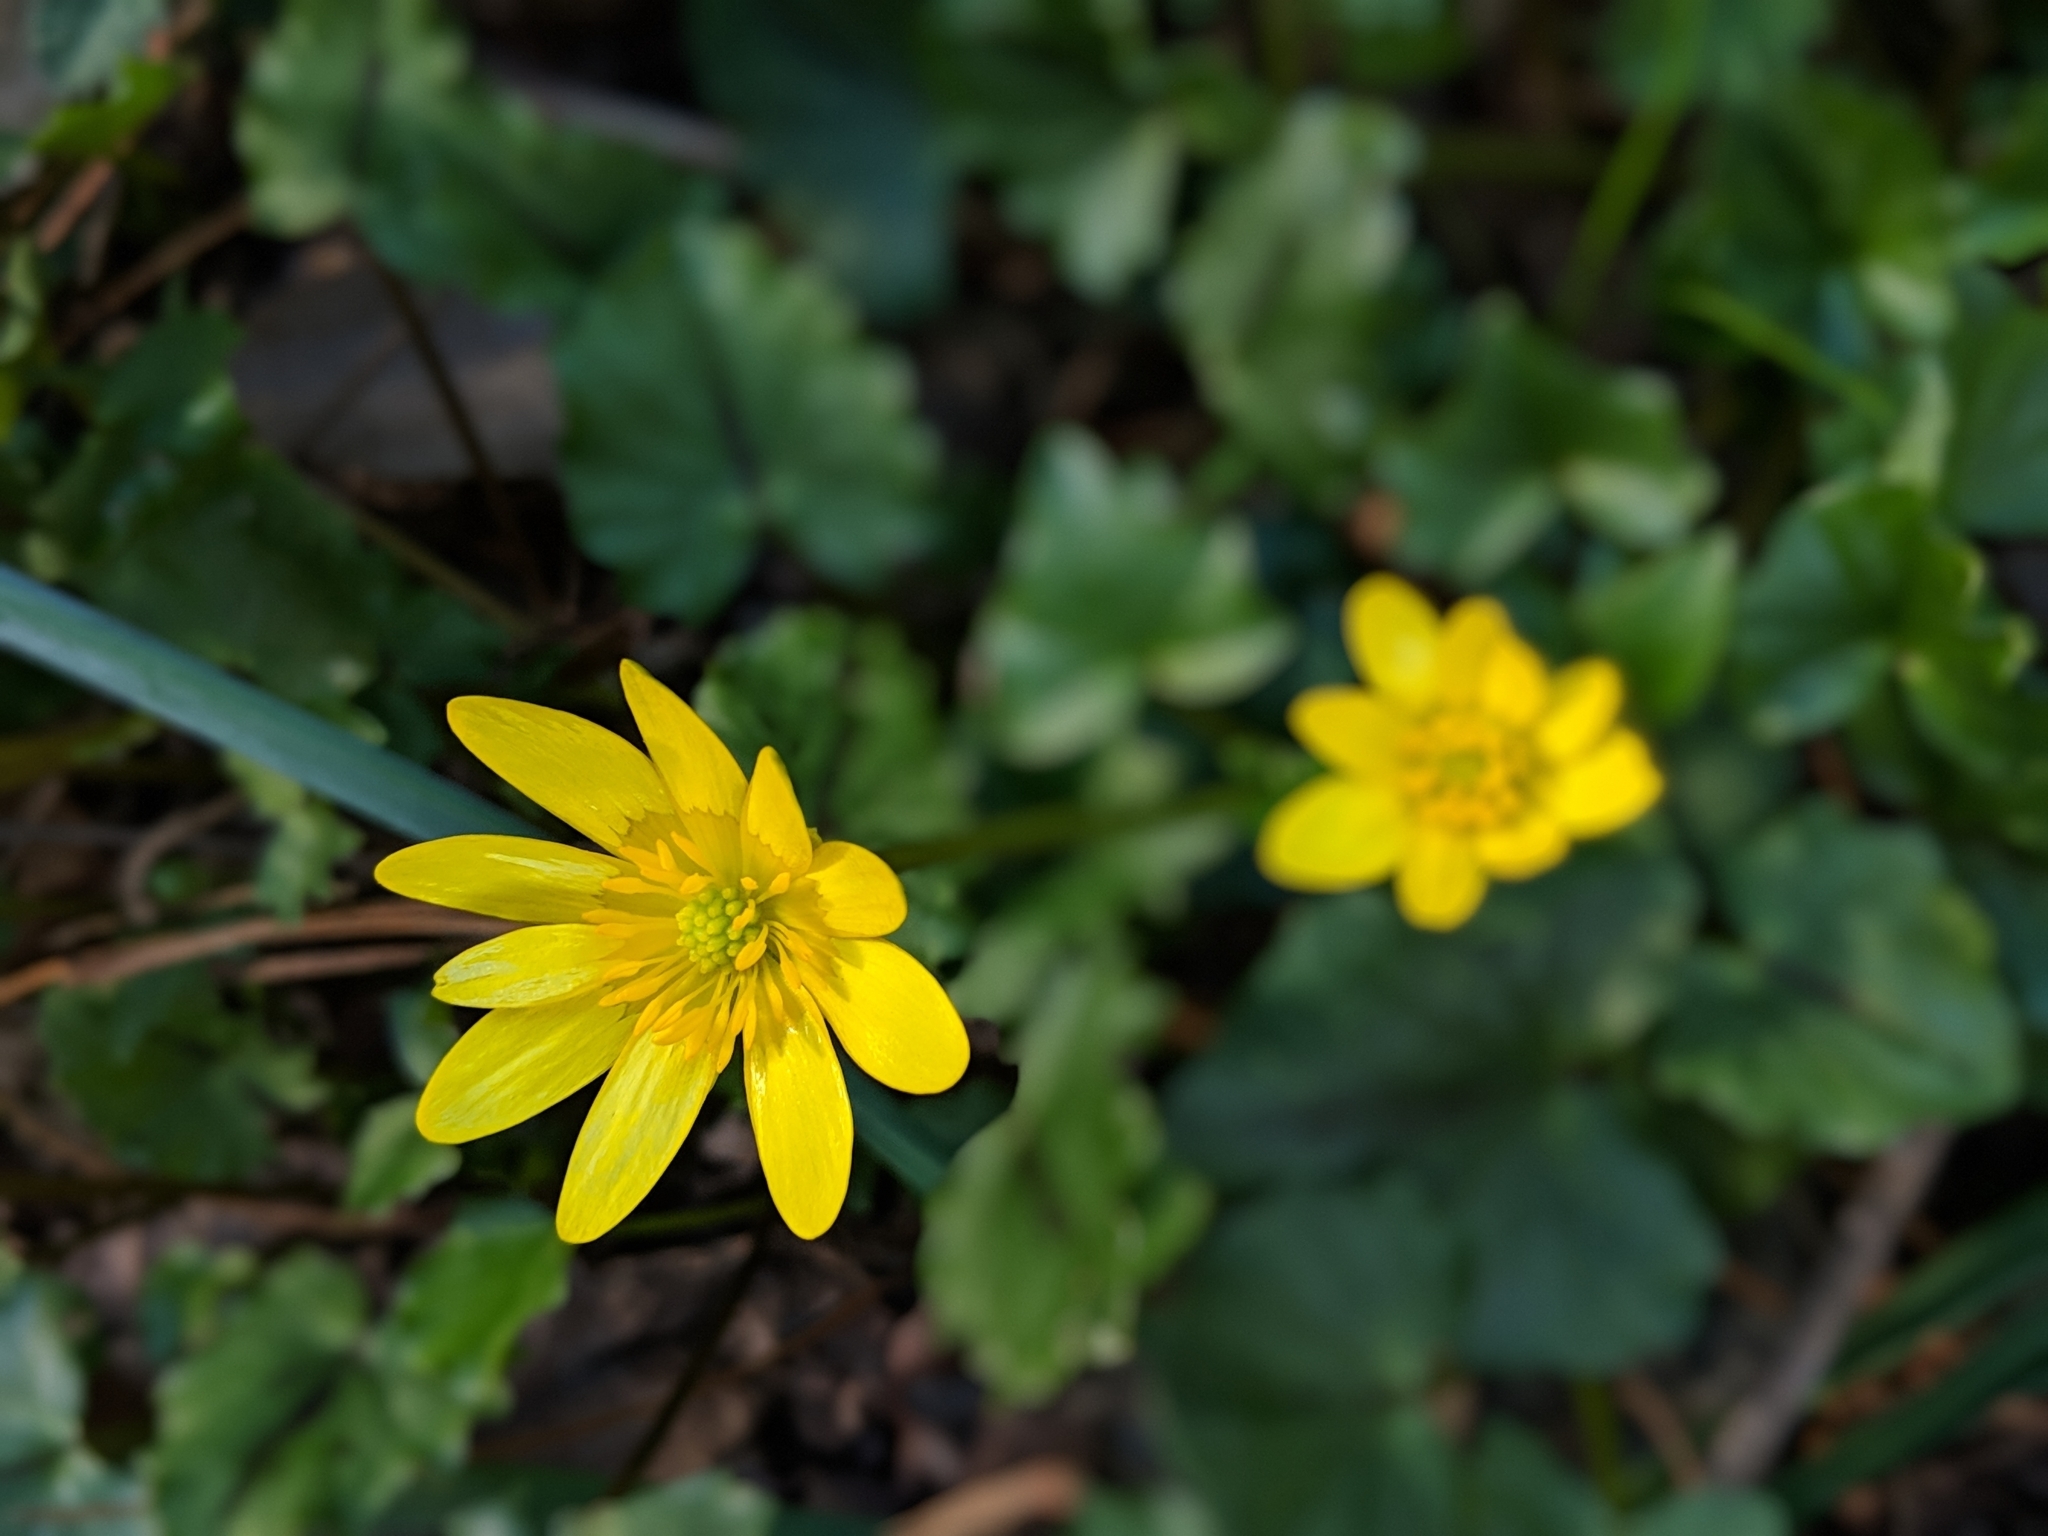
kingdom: Plantae
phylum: Tracheophyta
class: Magnoliopsida
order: Ranunculales
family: Ranunculaceae
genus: Ficaria
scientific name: Ficaria verna
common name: Lesser celandine
